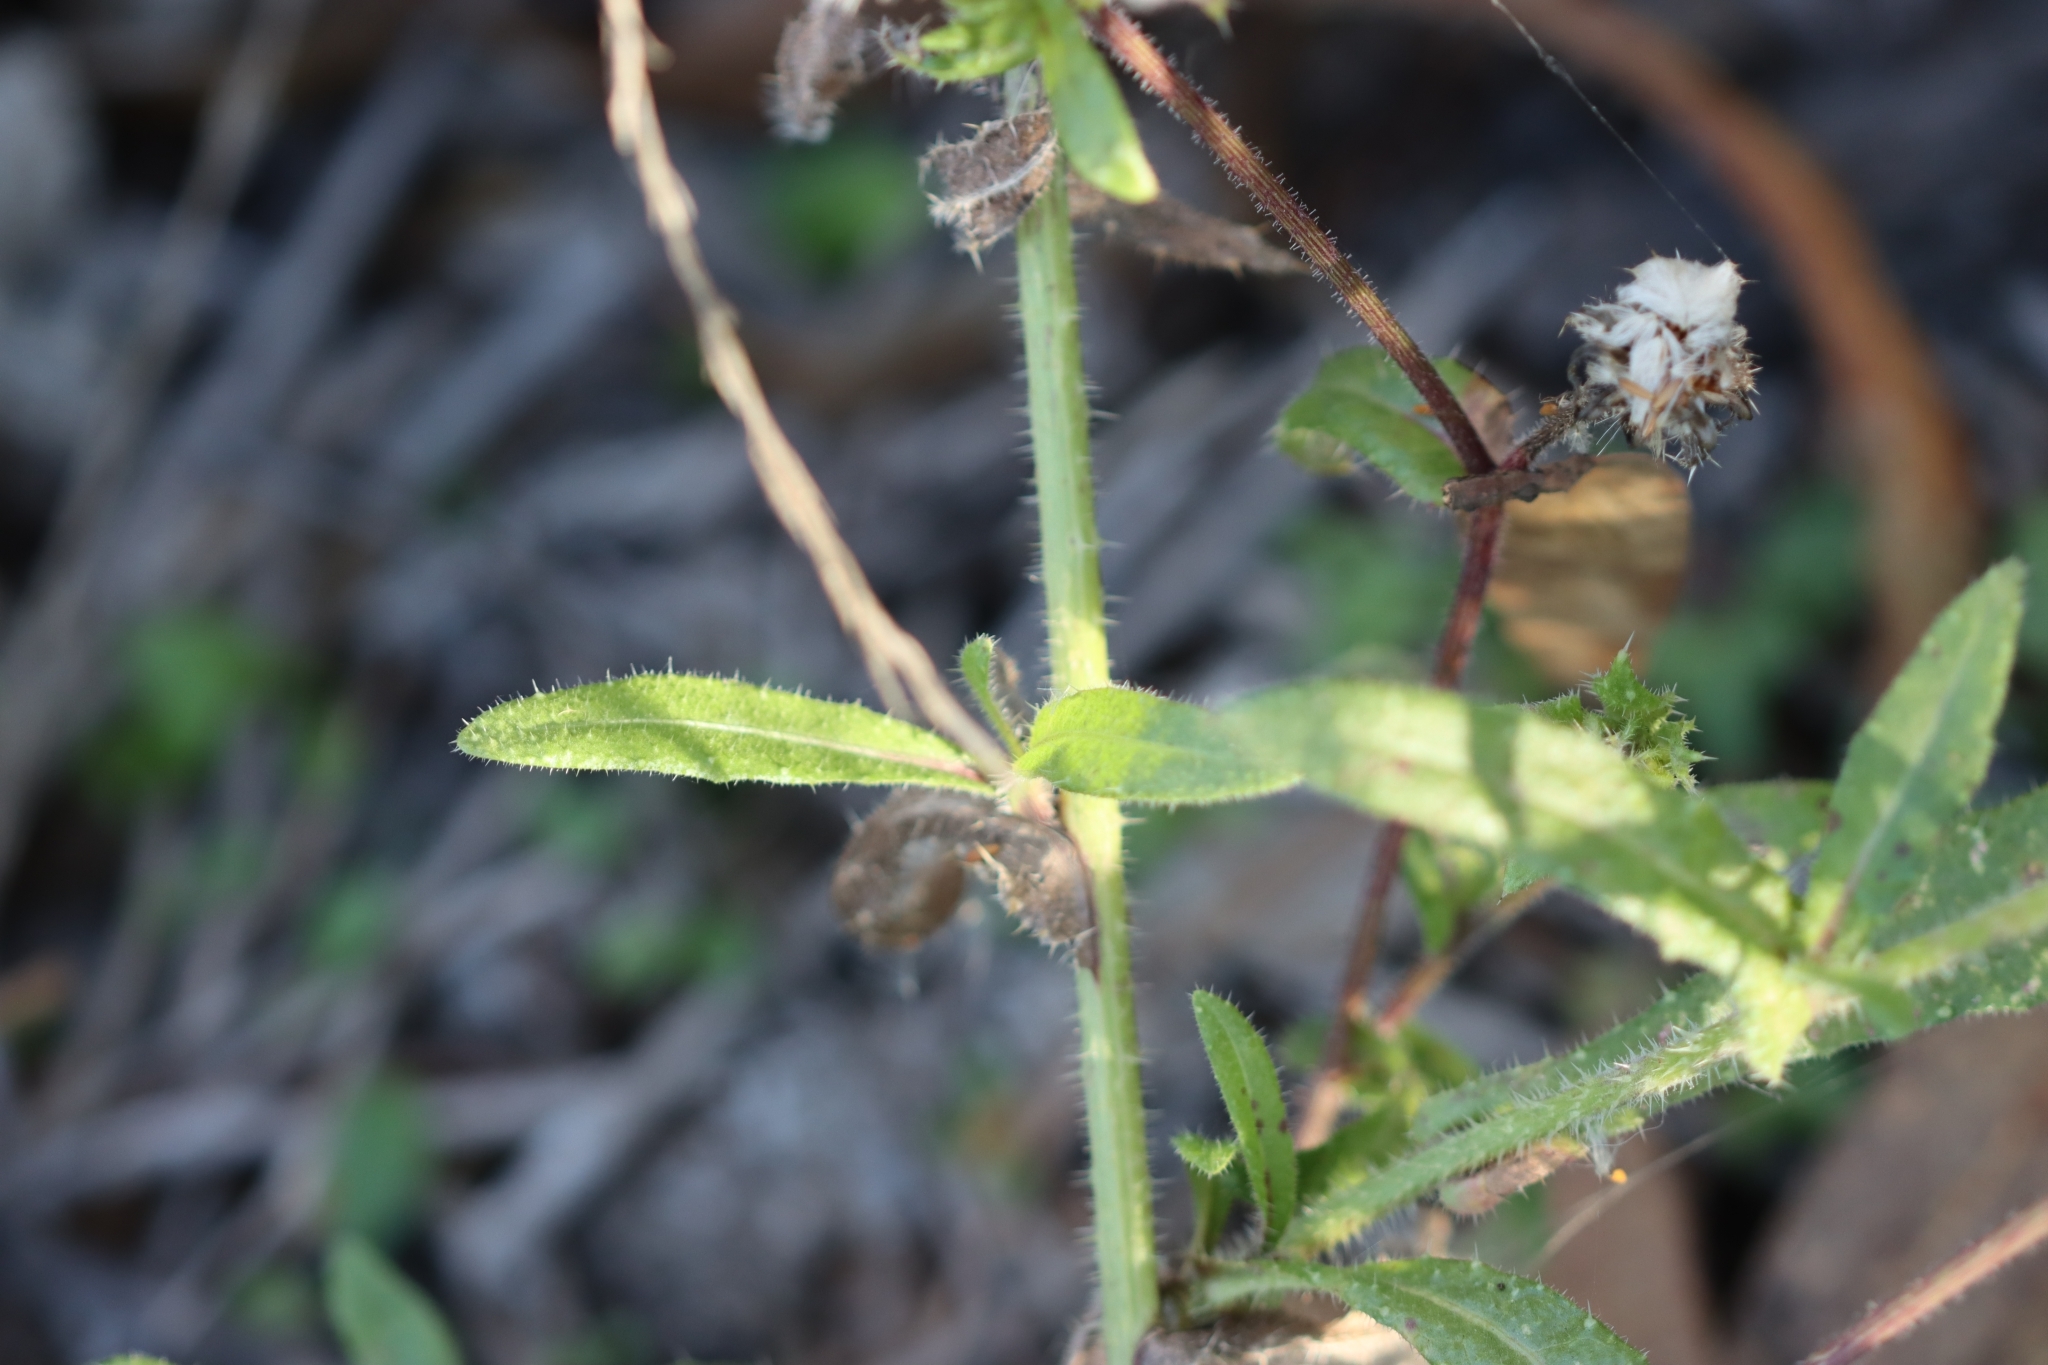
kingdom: Plantae
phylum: Tracheophyta
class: Magnoliopsida
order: Asterales
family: Asteraceae
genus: Helminthotheca
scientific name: Helminthotheca echioides
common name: Ox-tongue
